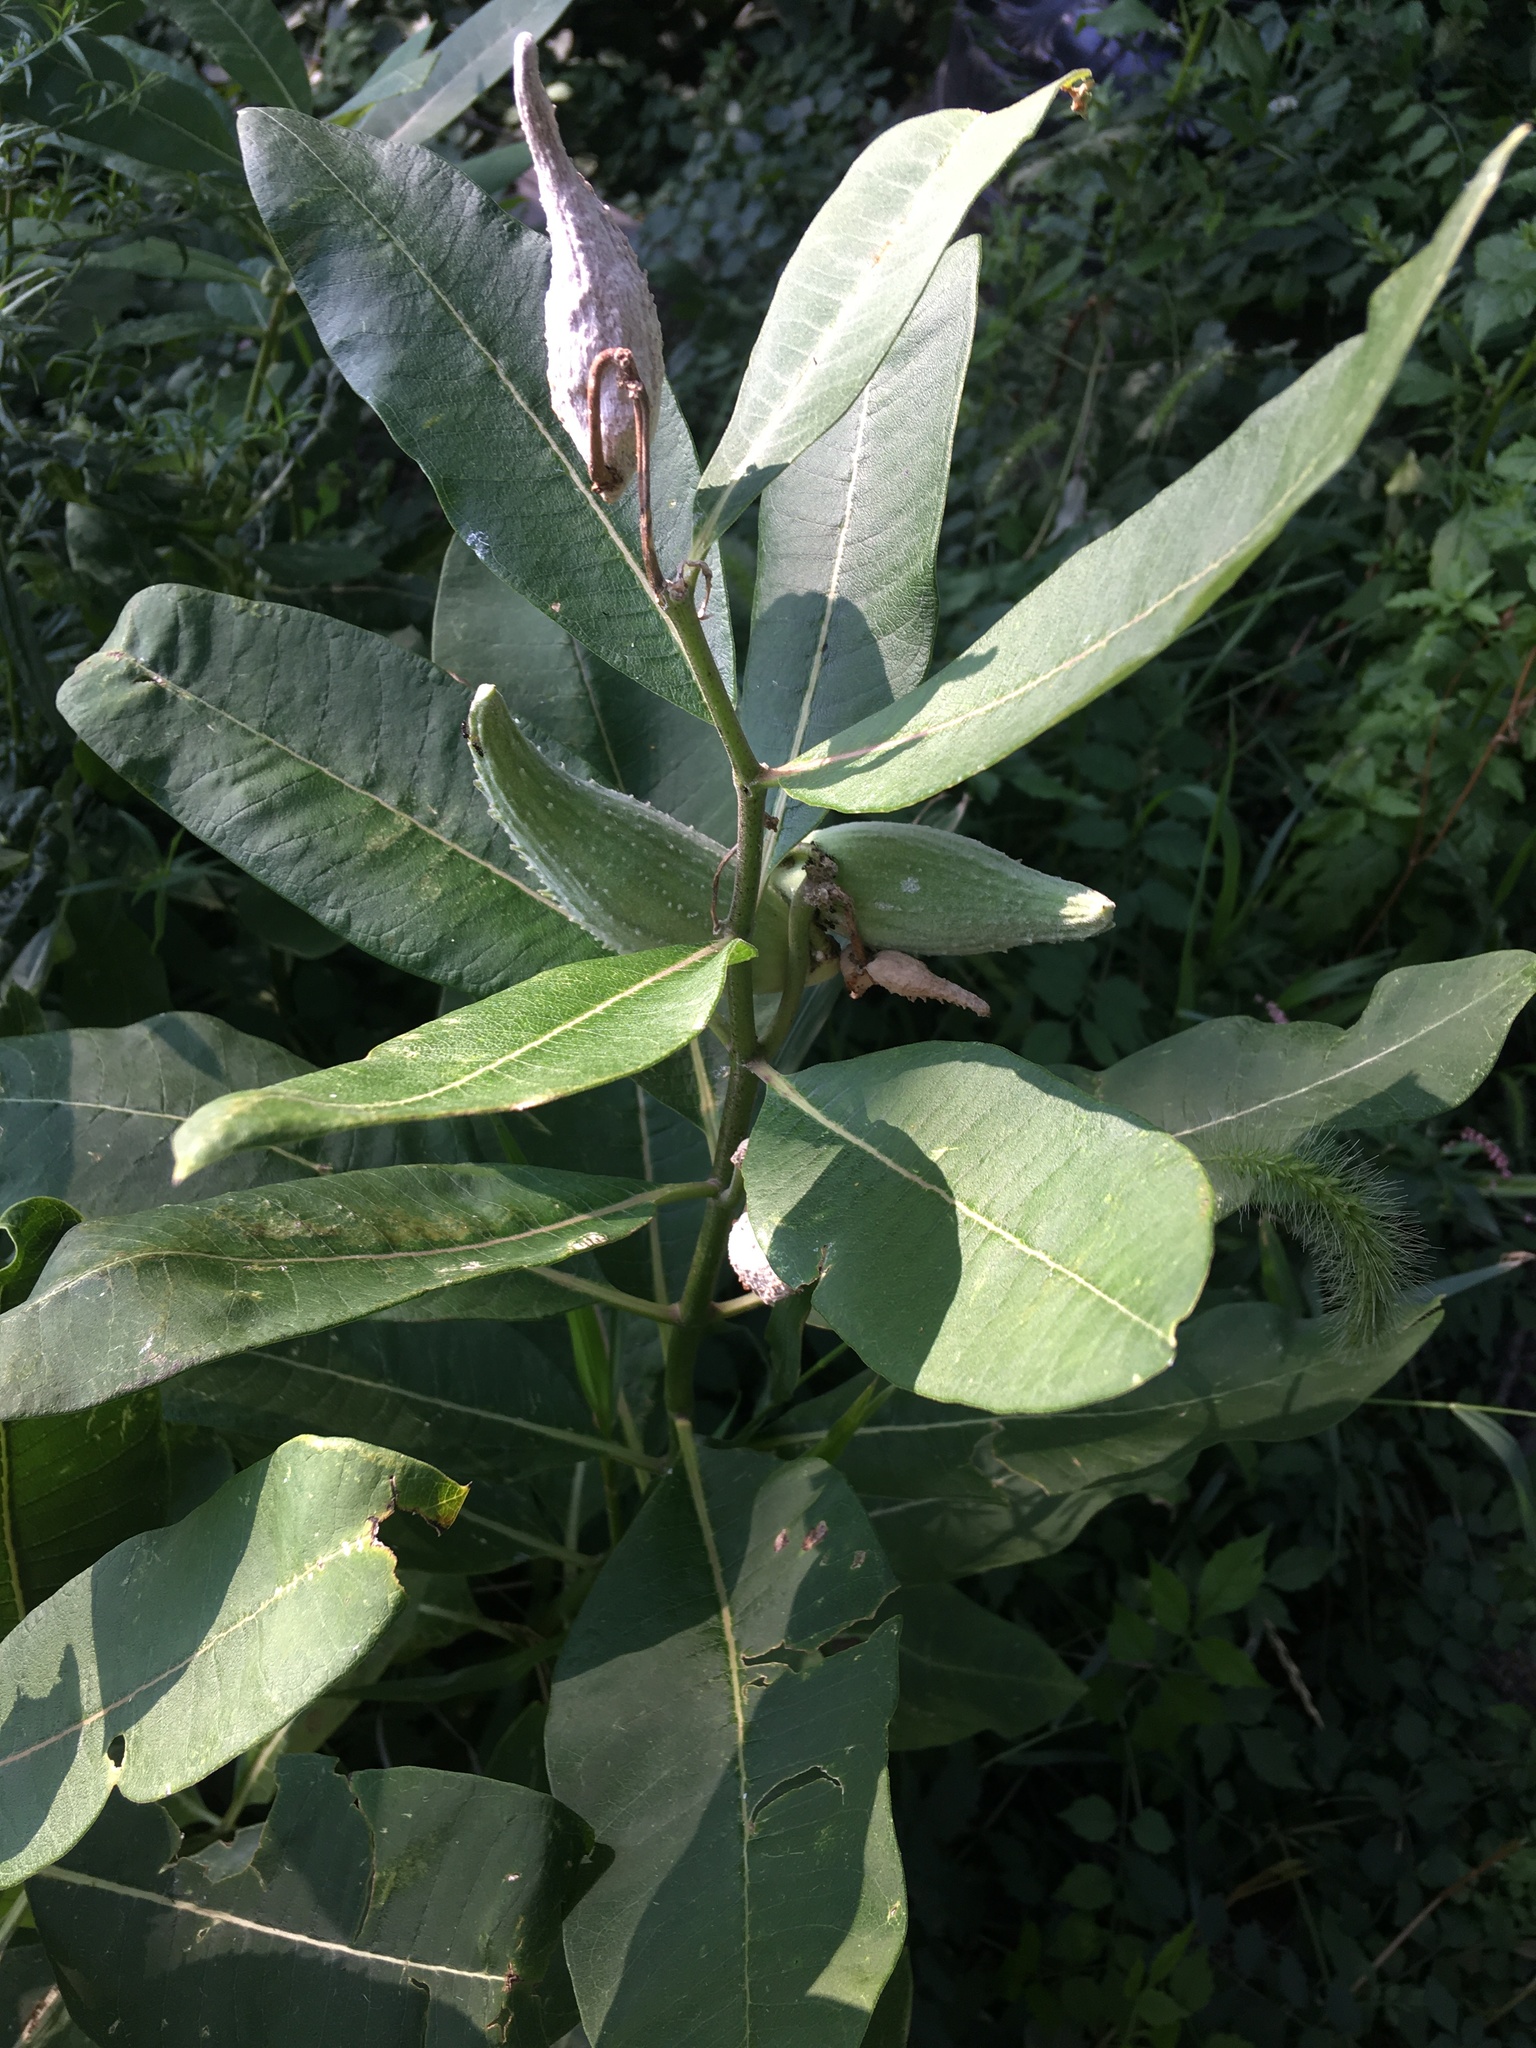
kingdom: Plantae
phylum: Tracheophyta
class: Magnoliopsida
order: Gentianales
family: Apocynaceae
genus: Asclepias
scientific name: Asclepias syriaca
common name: Common milkweed
